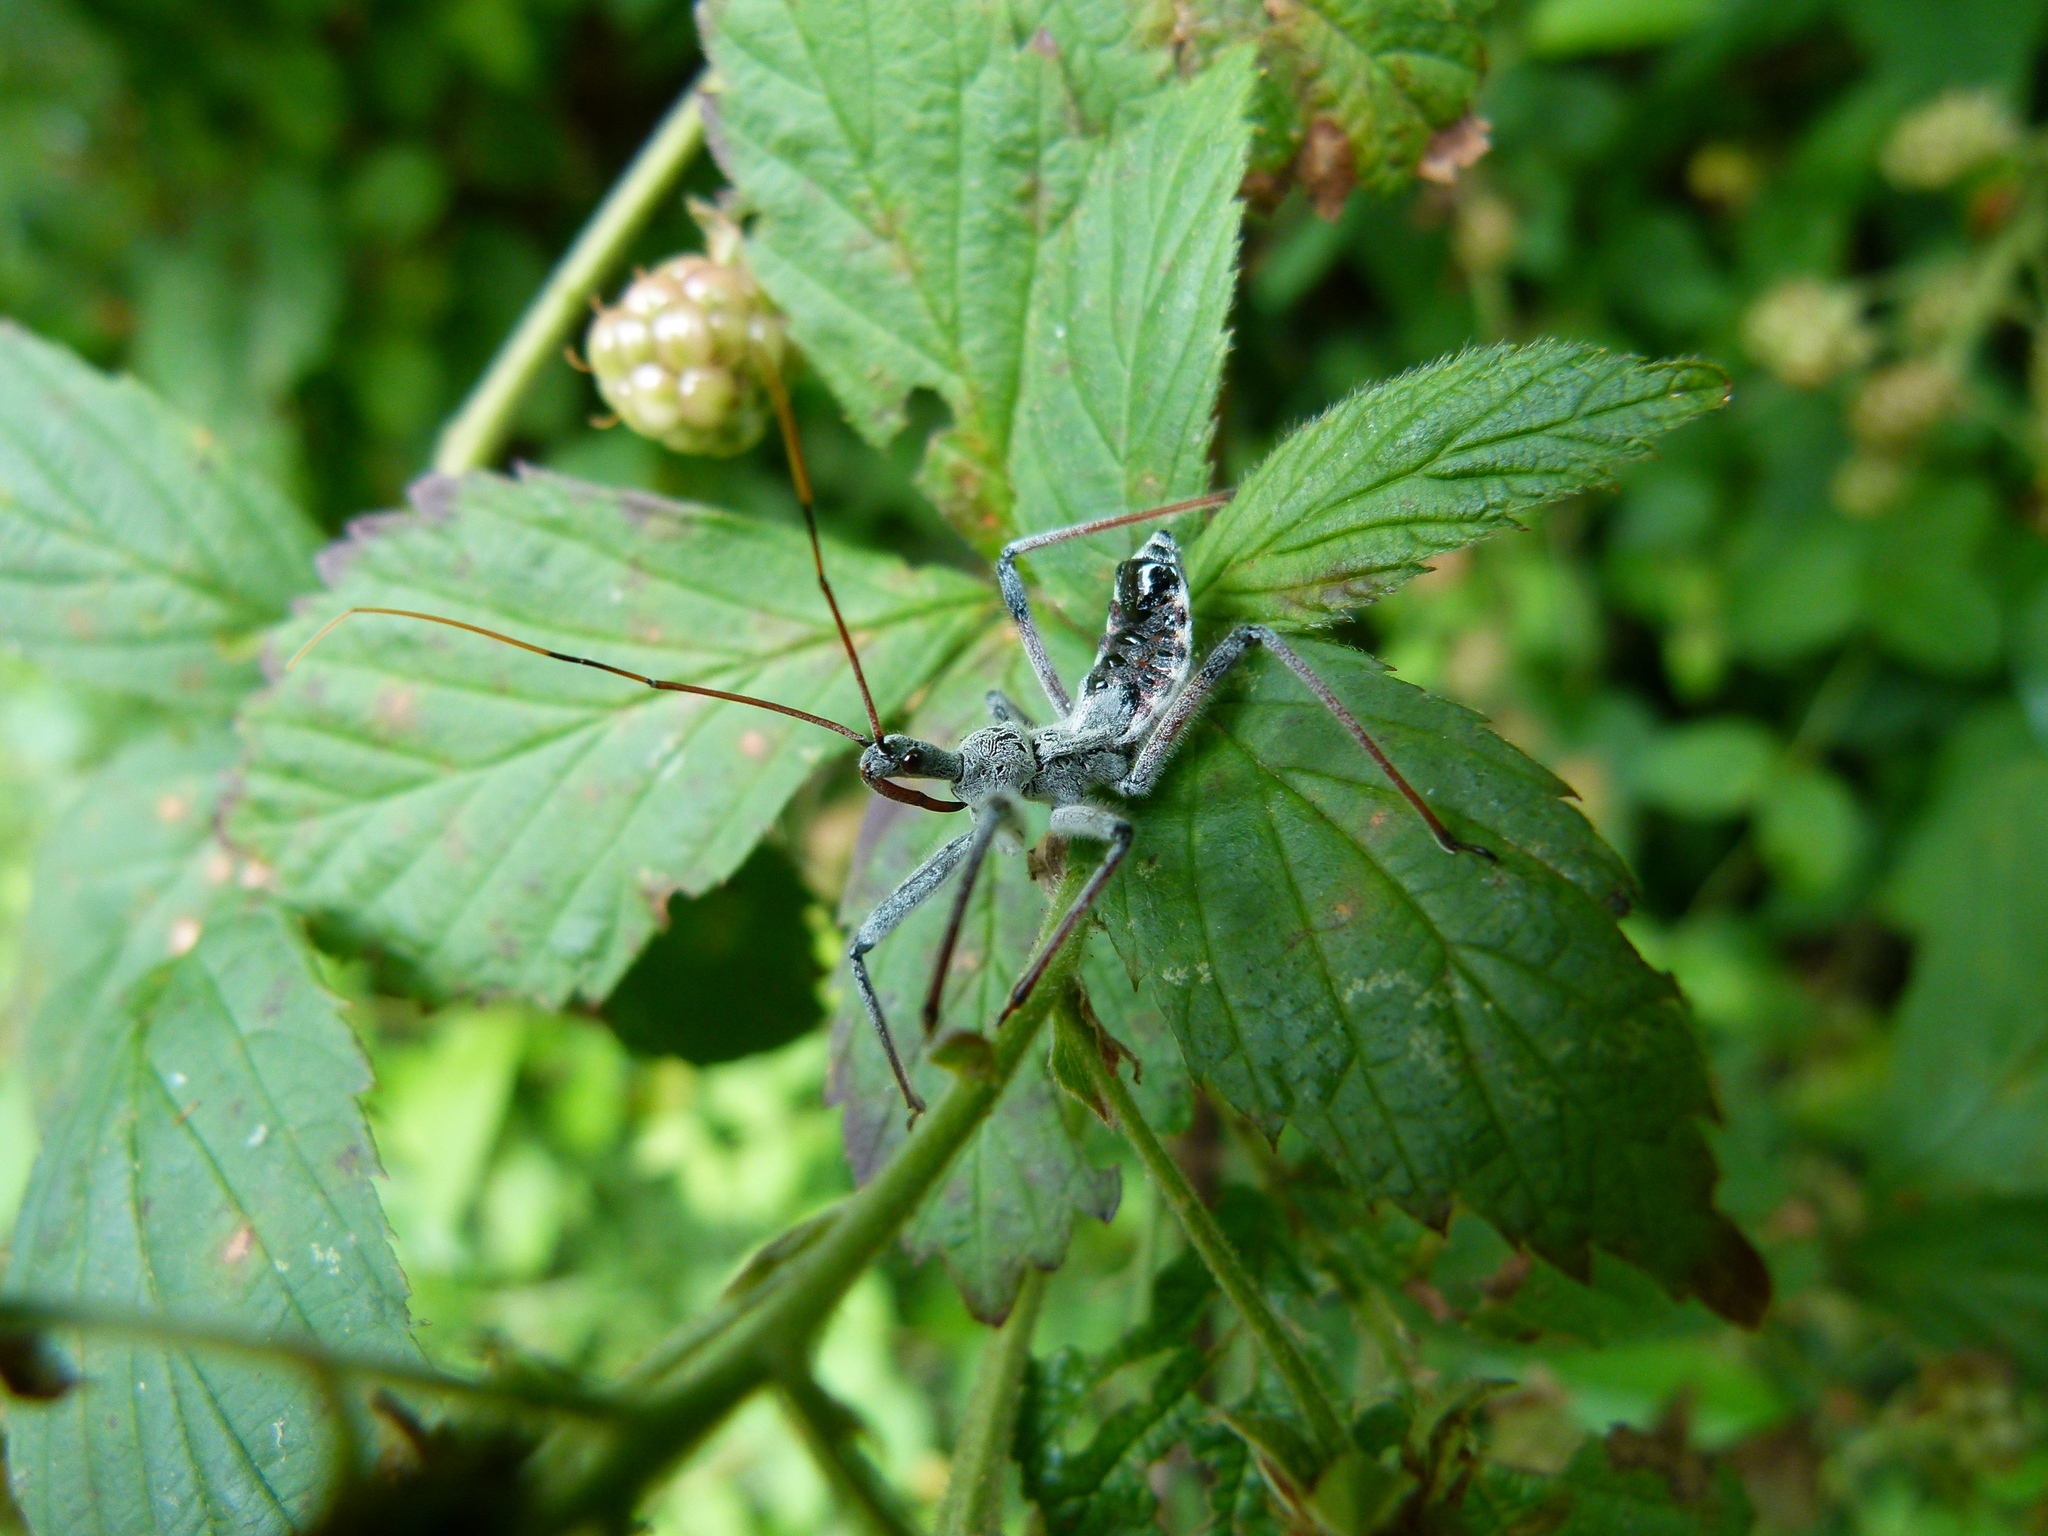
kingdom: Animalia
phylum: Arthropoda
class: Insecta
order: Hemiptera
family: Reduviidae
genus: Arilus
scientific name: Arilus cristatus
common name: North american wheel bug
